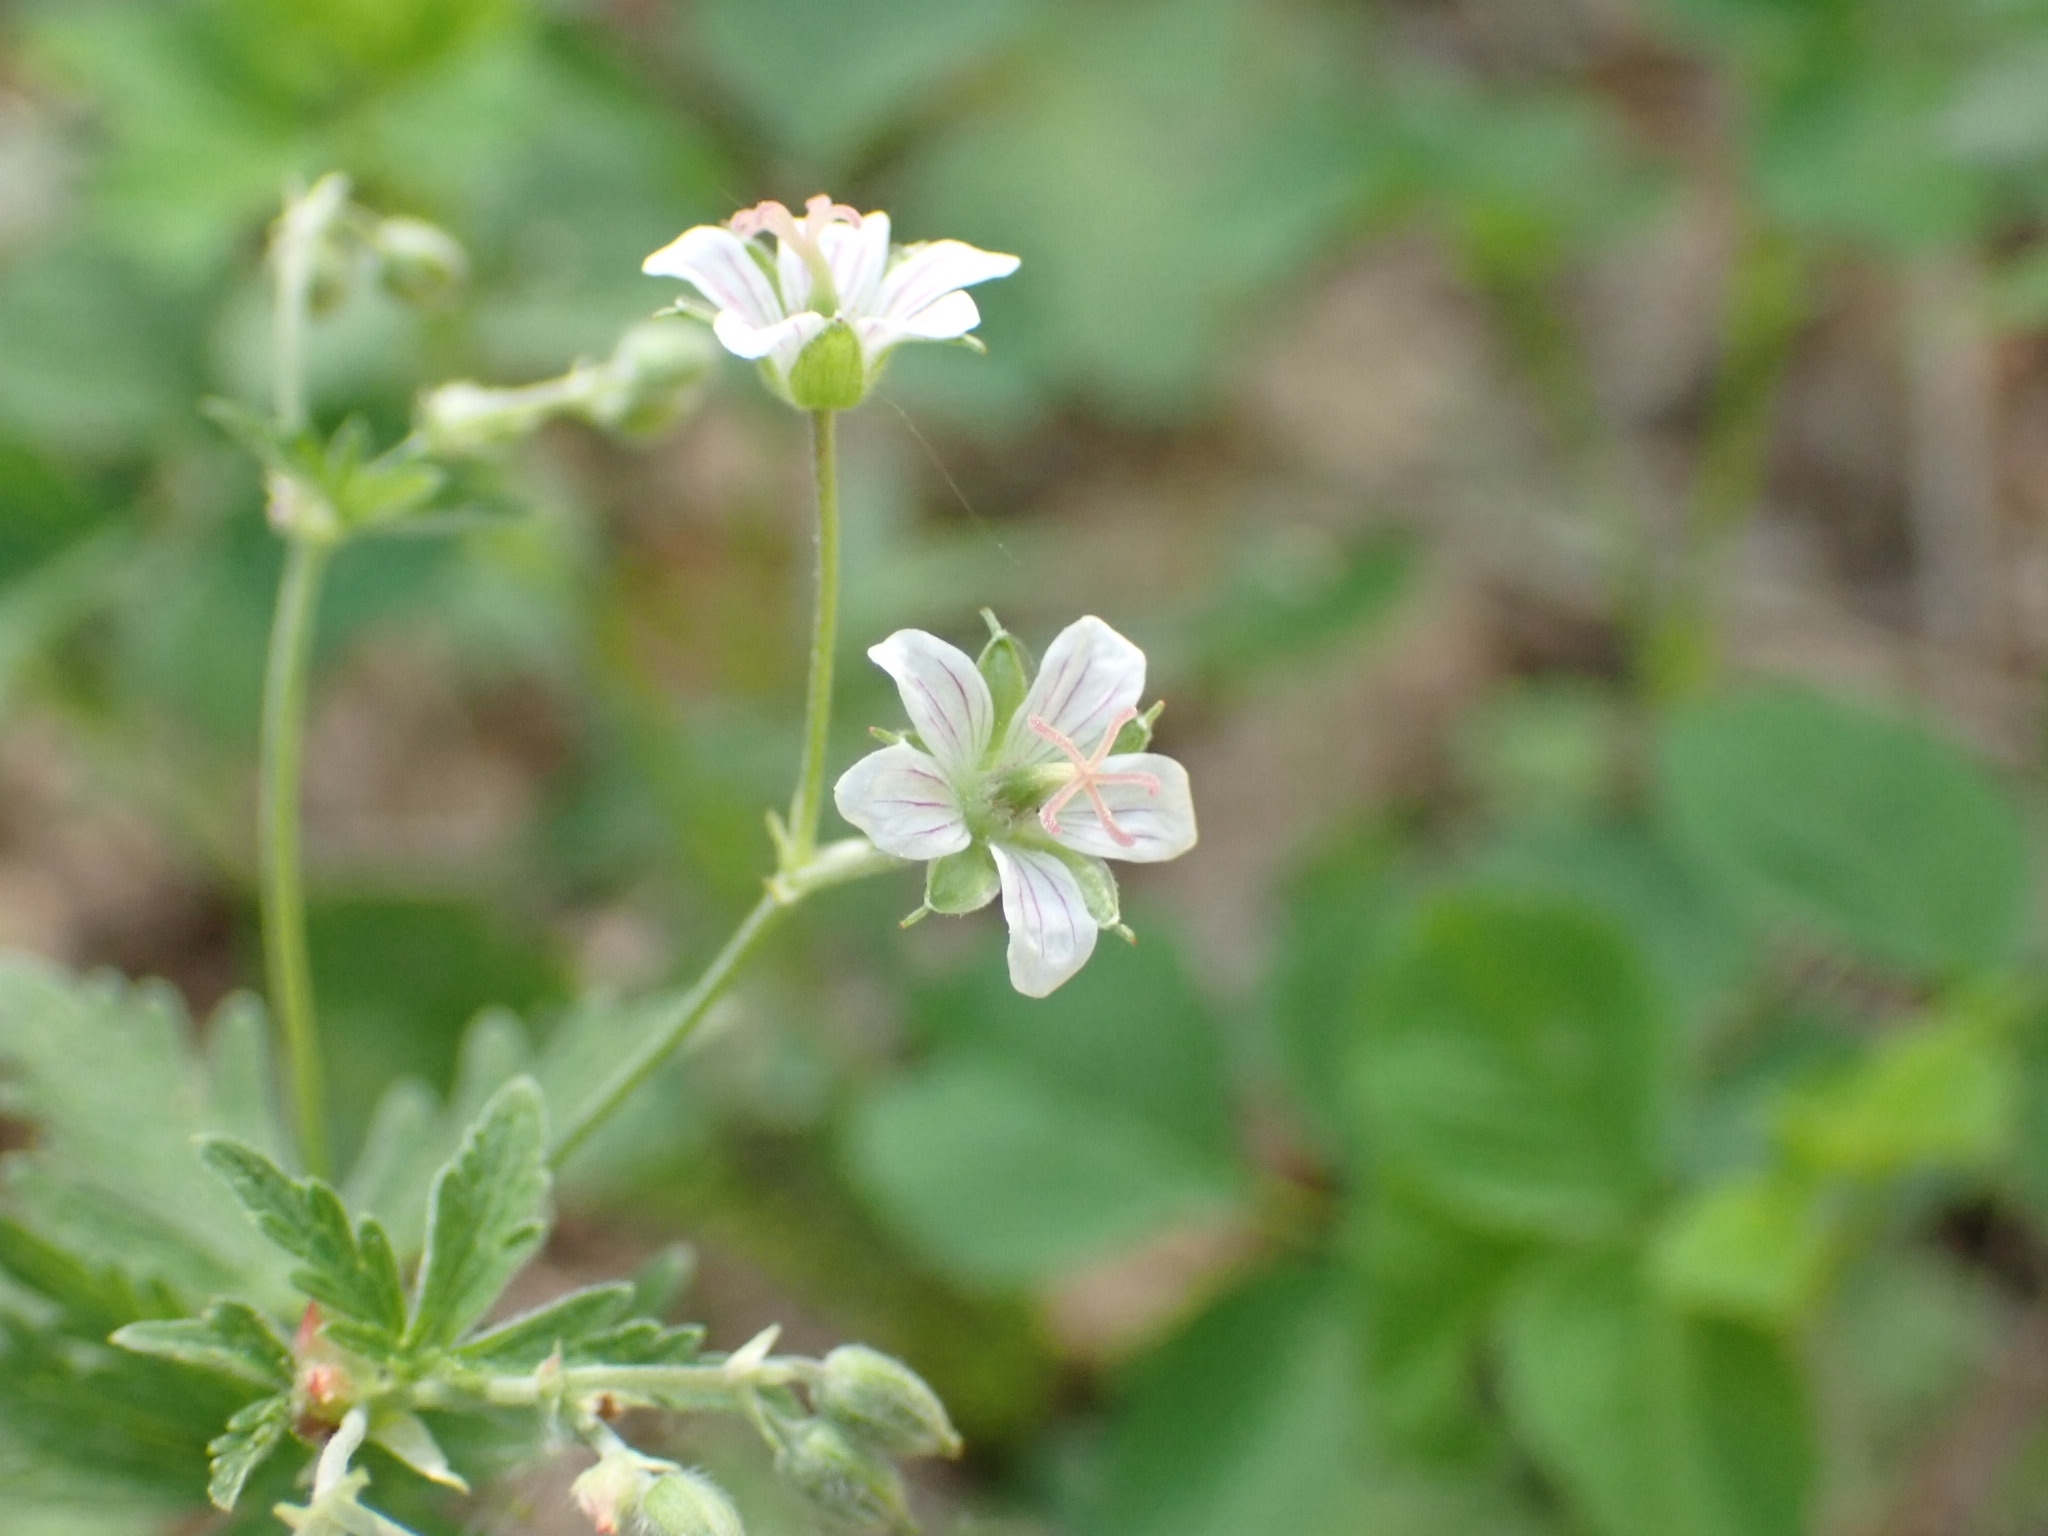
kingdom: Plantae
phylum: Tracheophyta
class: Magnoliopsida
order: Geraniales
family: Geraniaceae
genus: Geranium
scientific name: Geranium pseudosibiricum
